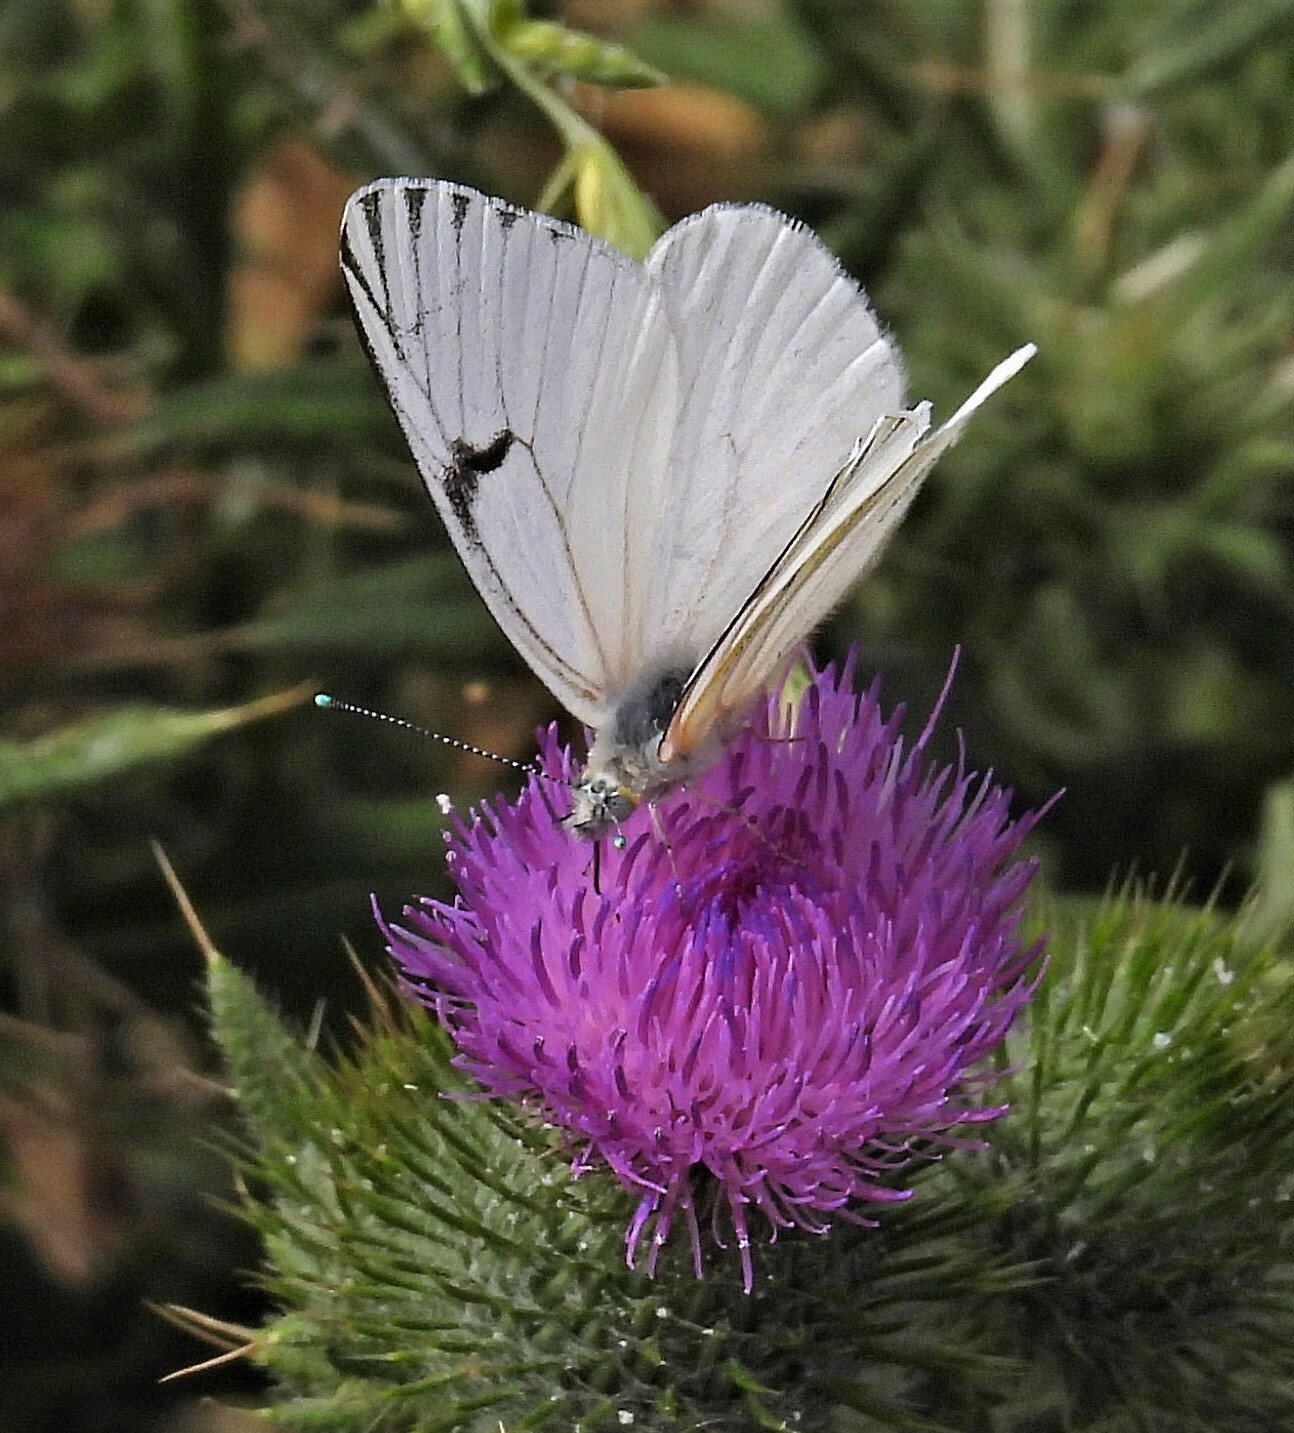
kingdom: Animalia
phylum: Arthropoda
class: Insecta
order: Lepidoptera
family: Pieridae
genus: Tatochila
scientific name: Tatochila mercedis
